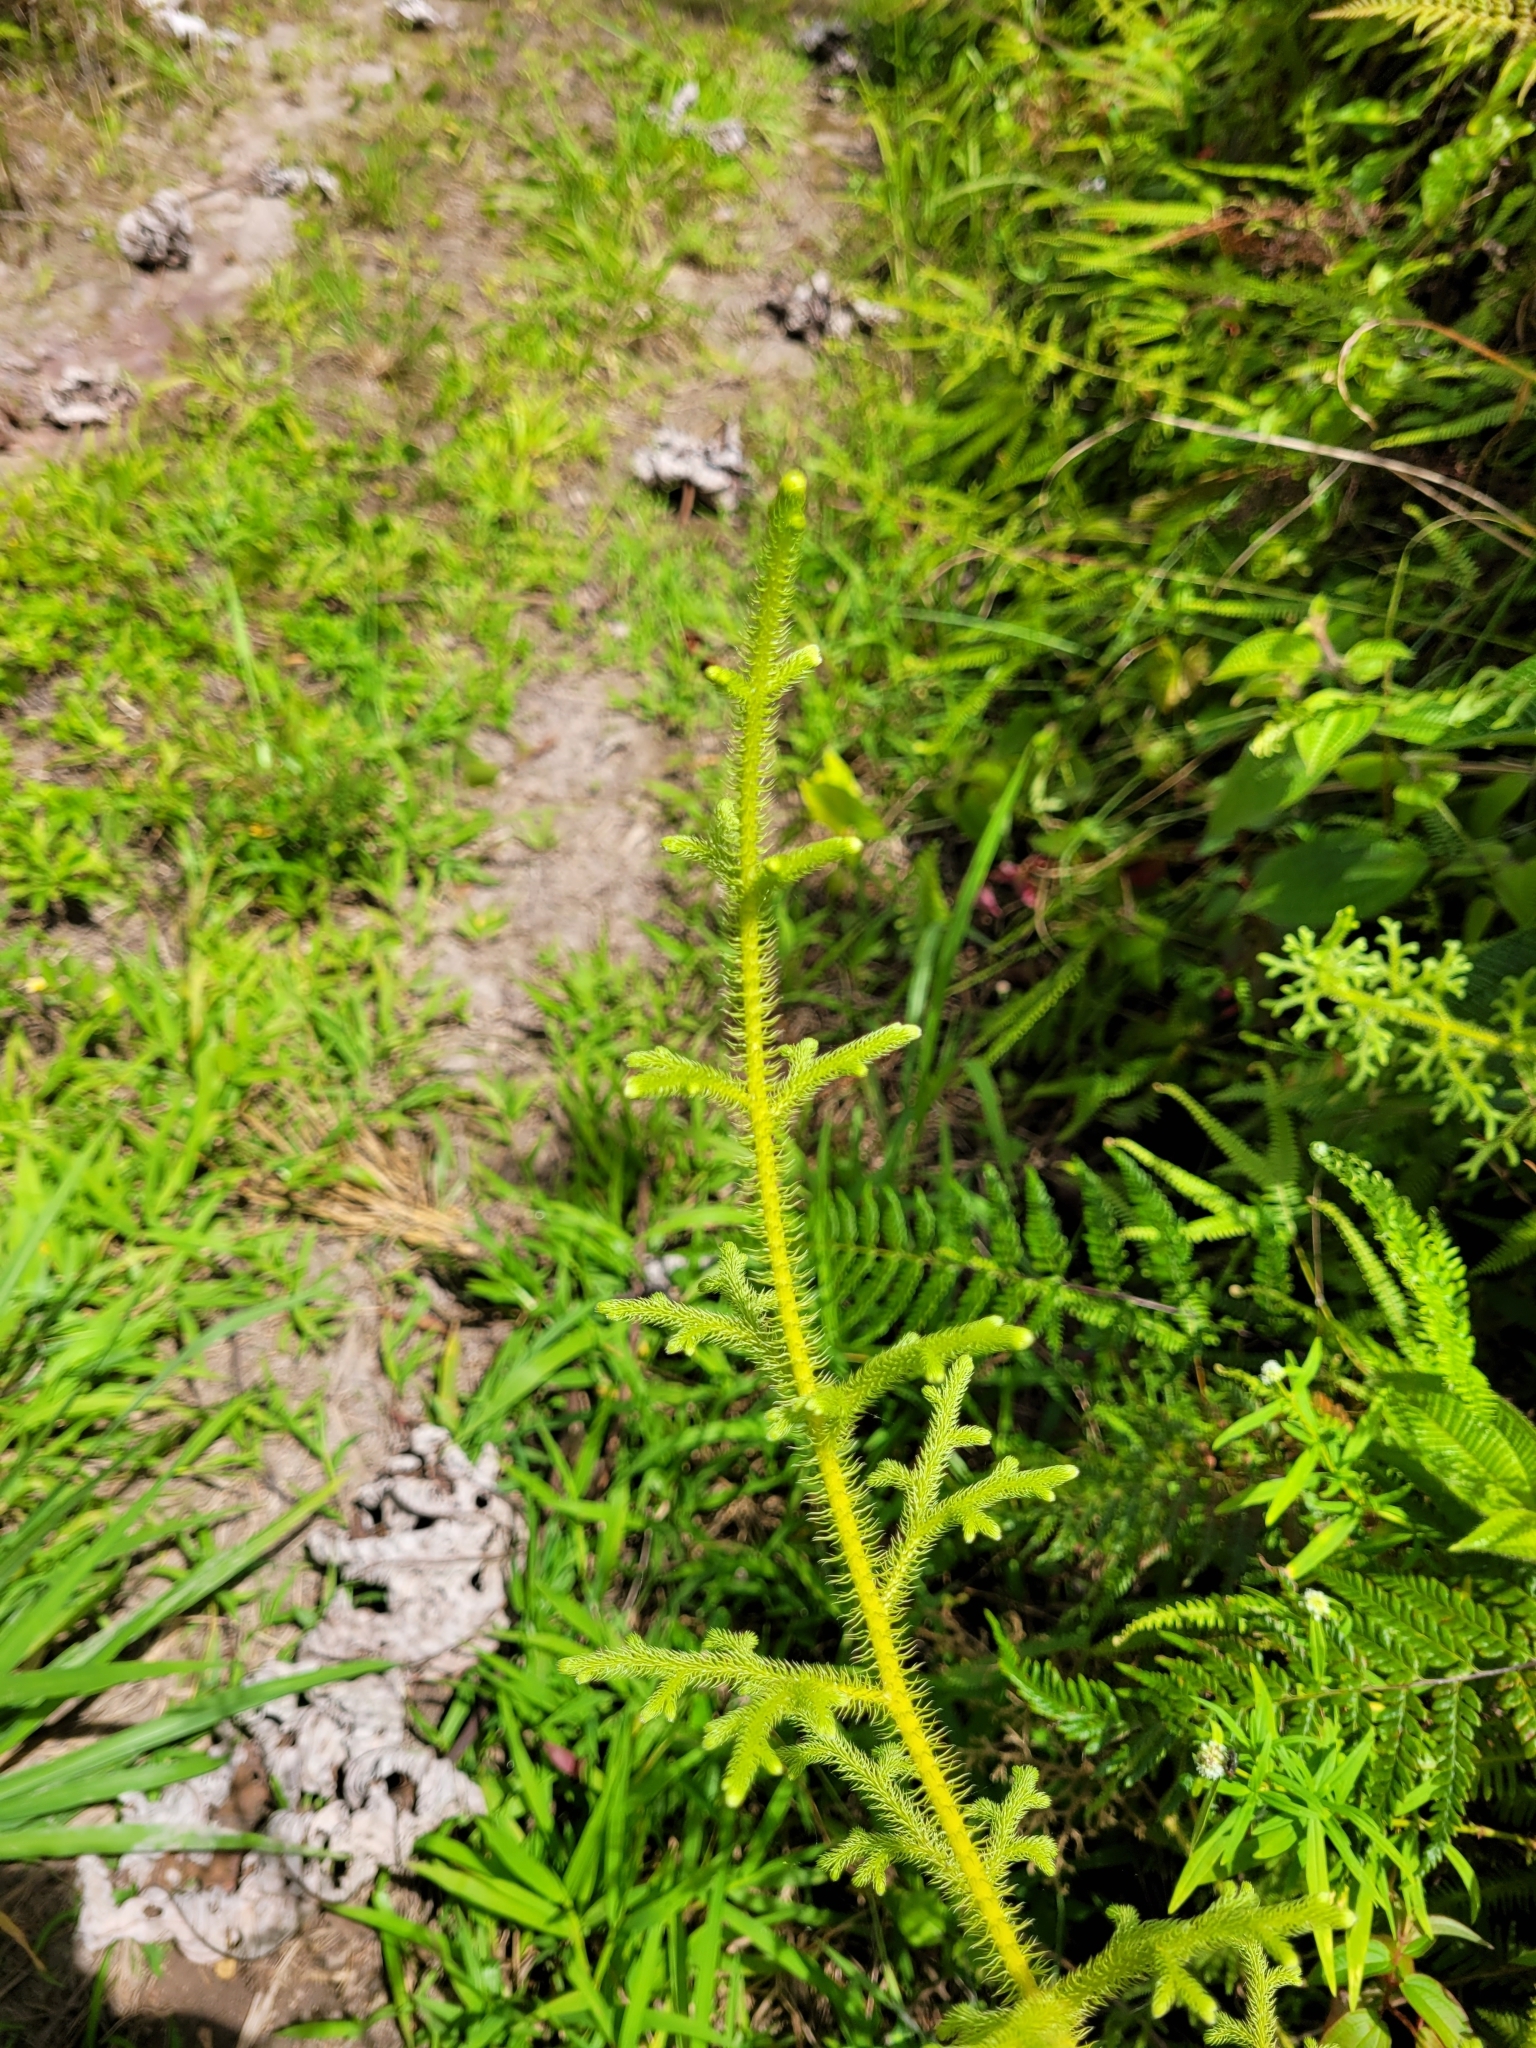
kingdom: Plantae
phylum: Tracheophyta
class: Lycopodiopsida
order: Lycopodiales
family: Lycopodiaceae
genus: Palhinhaea
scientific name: Palhinhaea cernua
